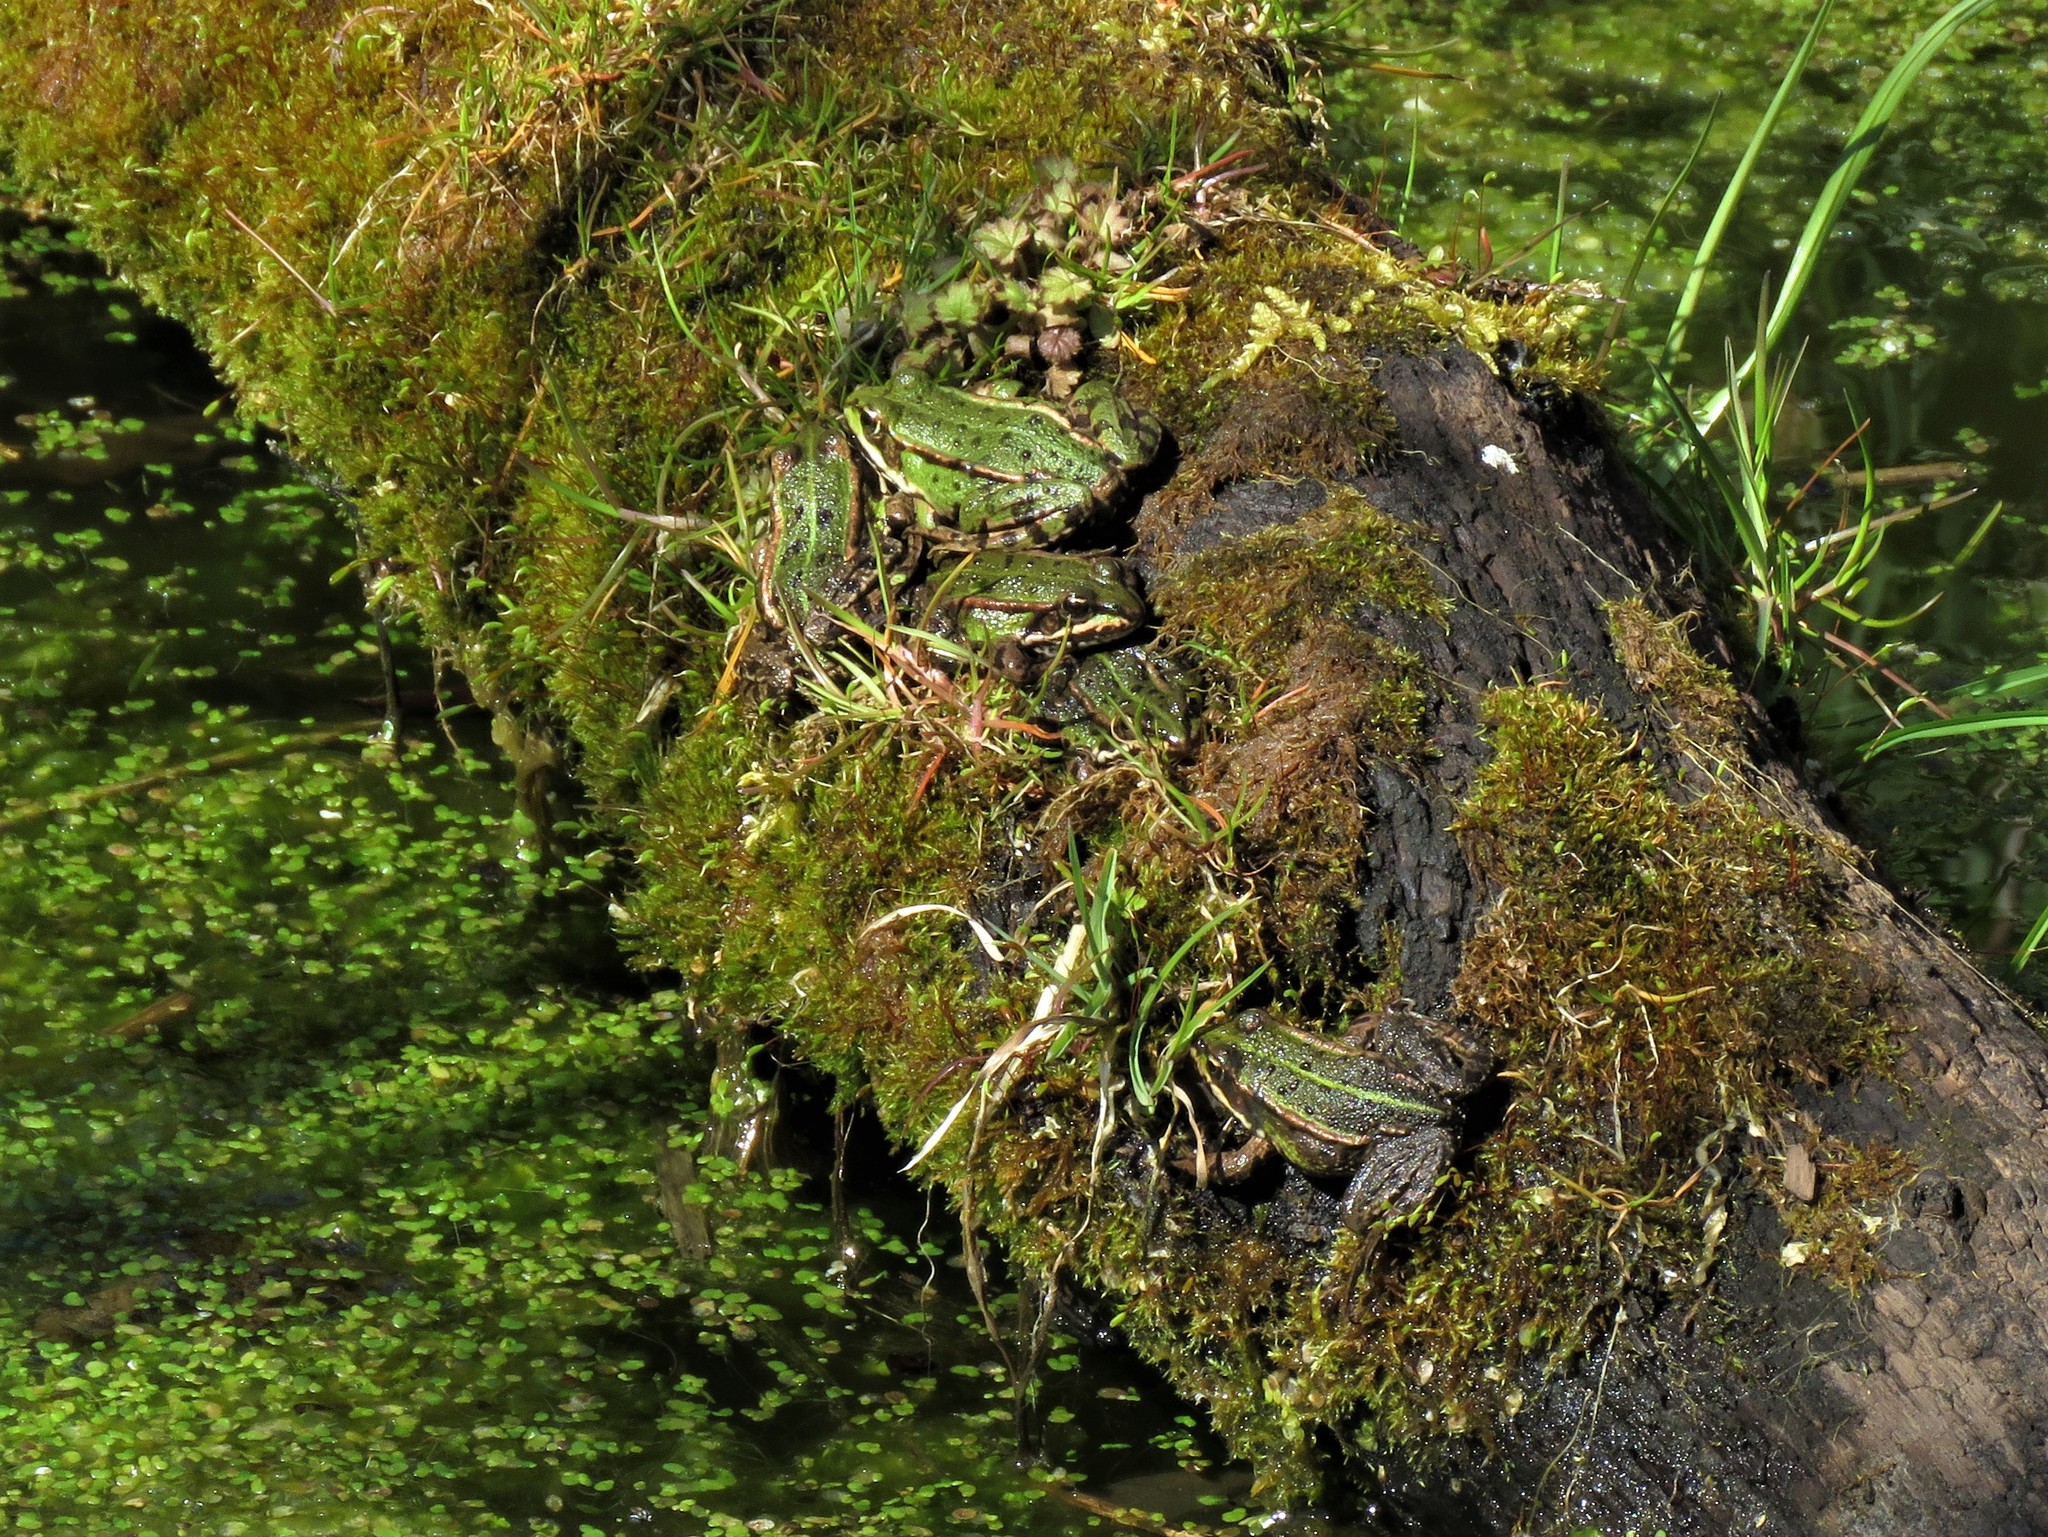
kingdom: Animalia
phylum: Chordata
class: Amphibia
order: Anura
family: Ranidae
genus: Pelophylax
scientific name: Pelophylax lessonae
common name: Pool frog
